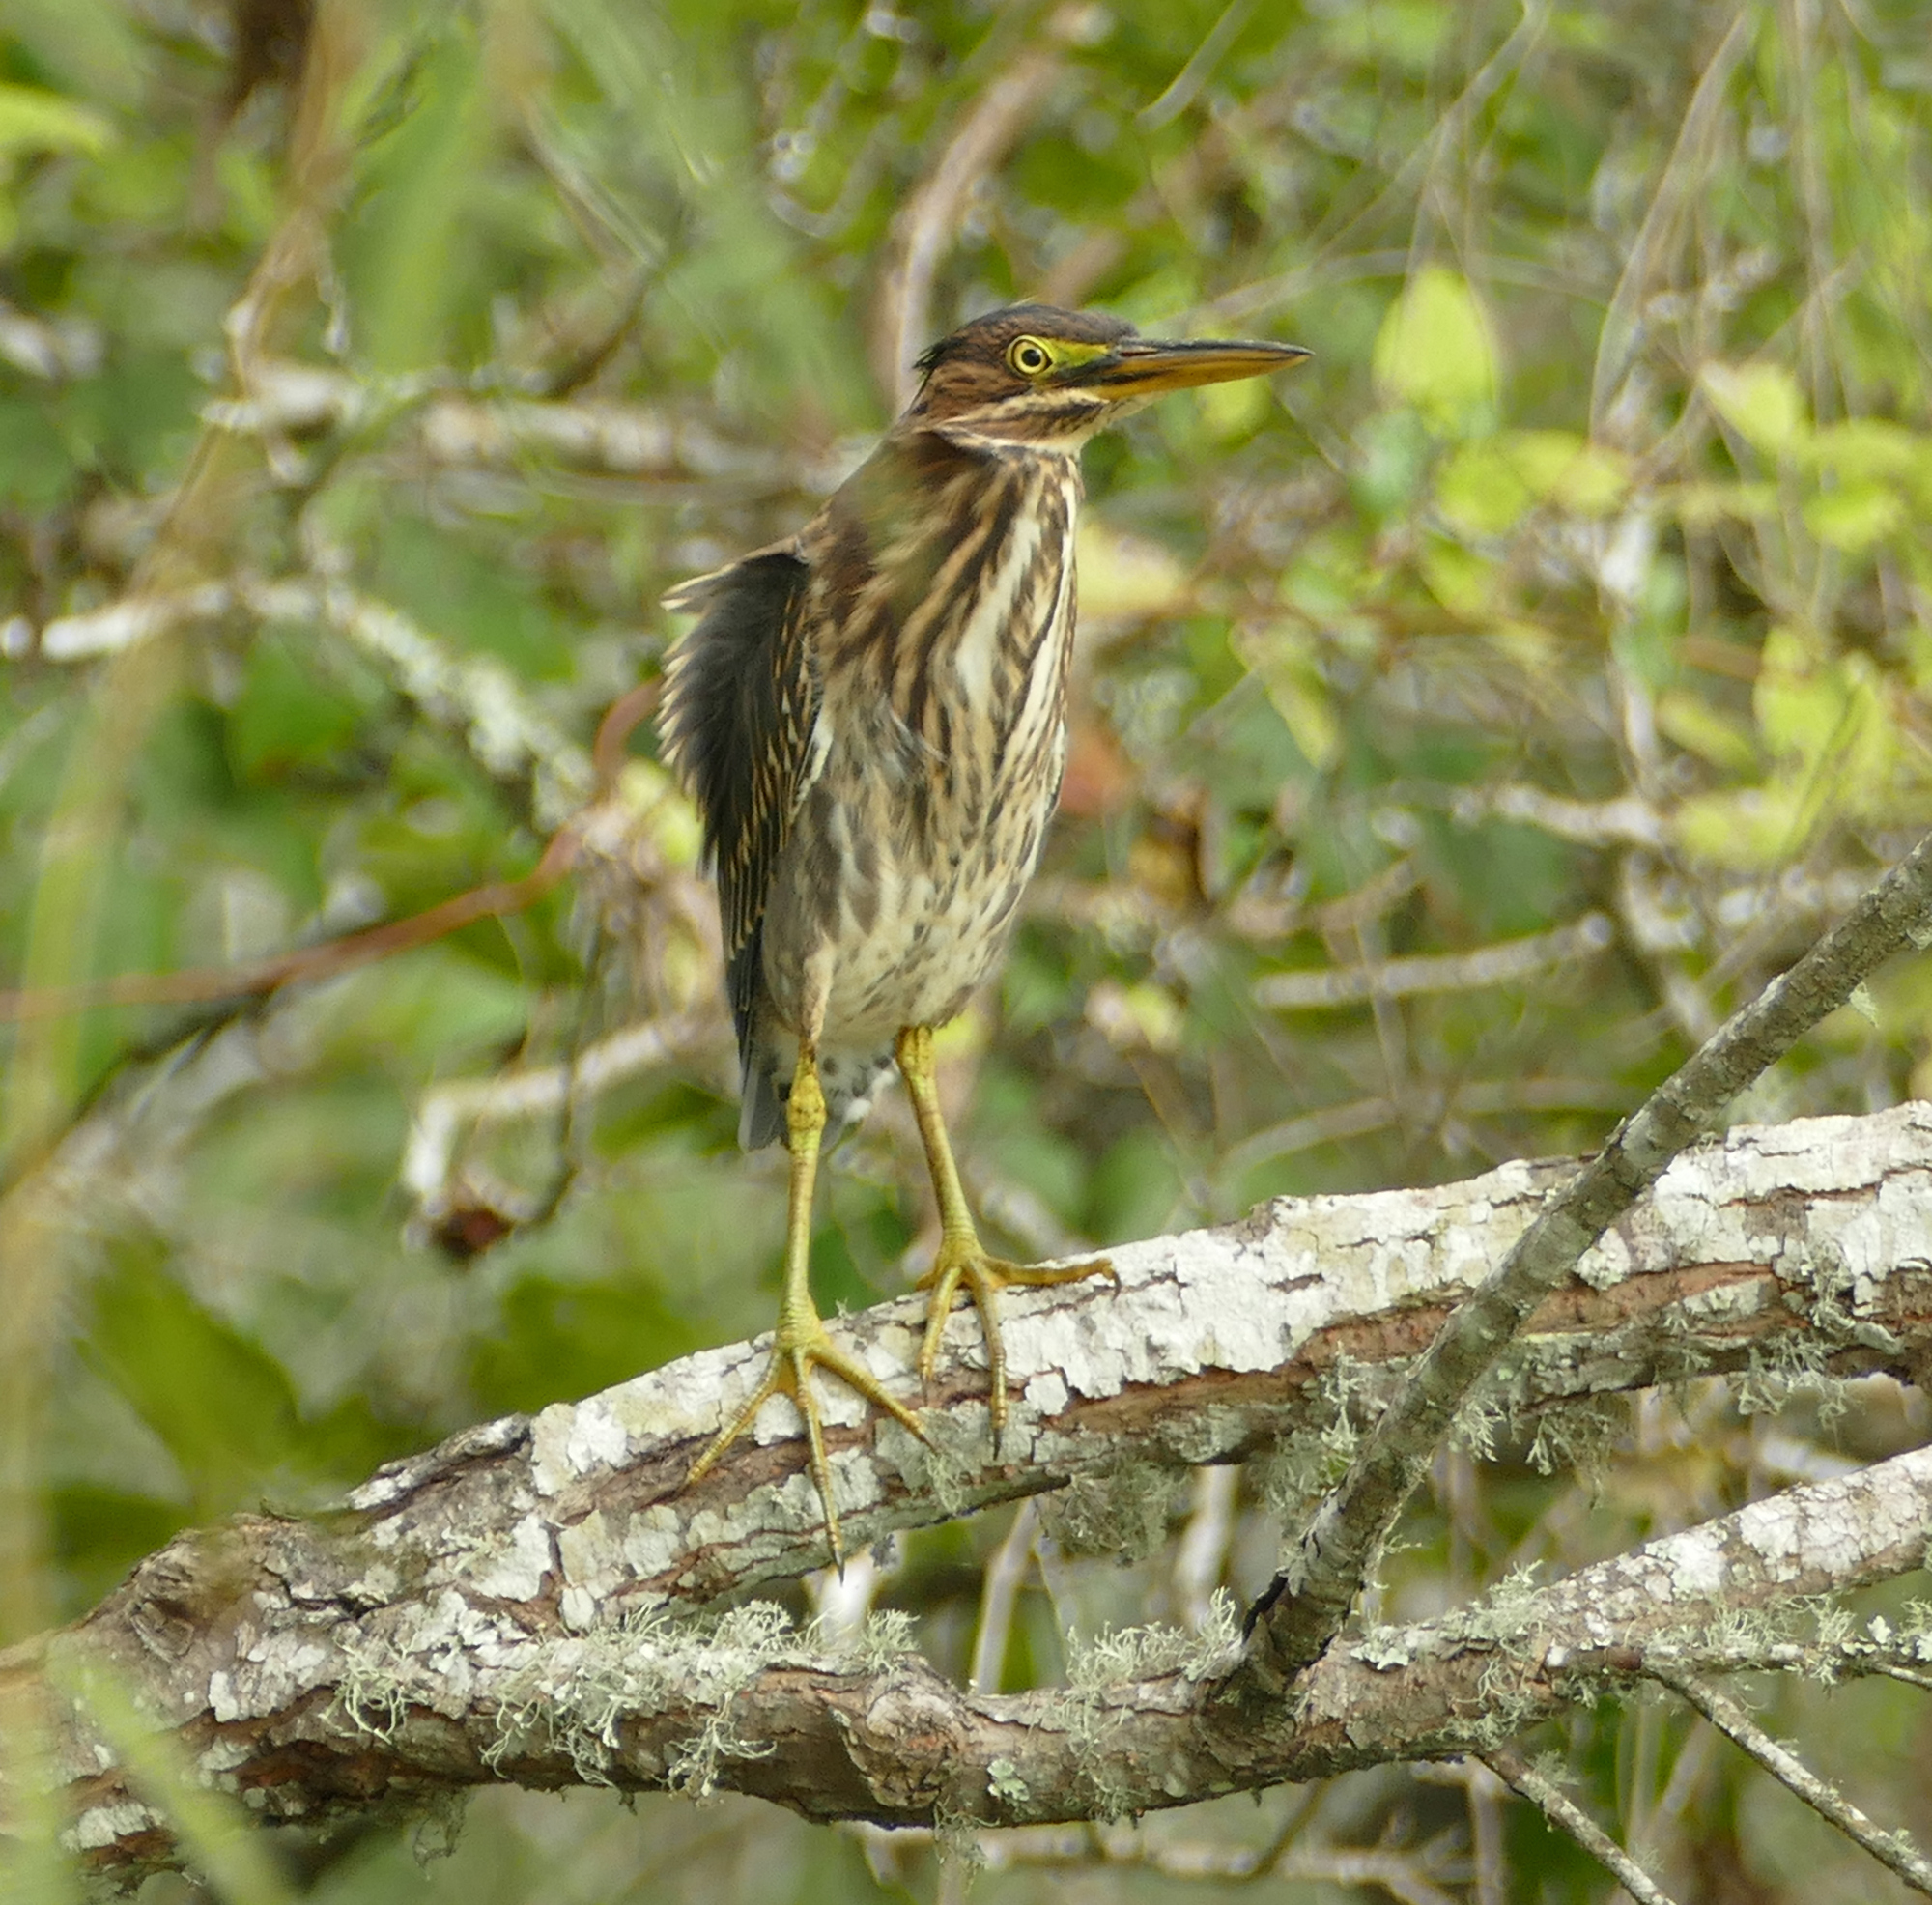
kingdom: Animalia
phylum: Chordata
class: Aves
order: Pelecaniformes
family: Ardeidae
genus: Butorides
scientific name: Butorides virescens
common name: Green heron
